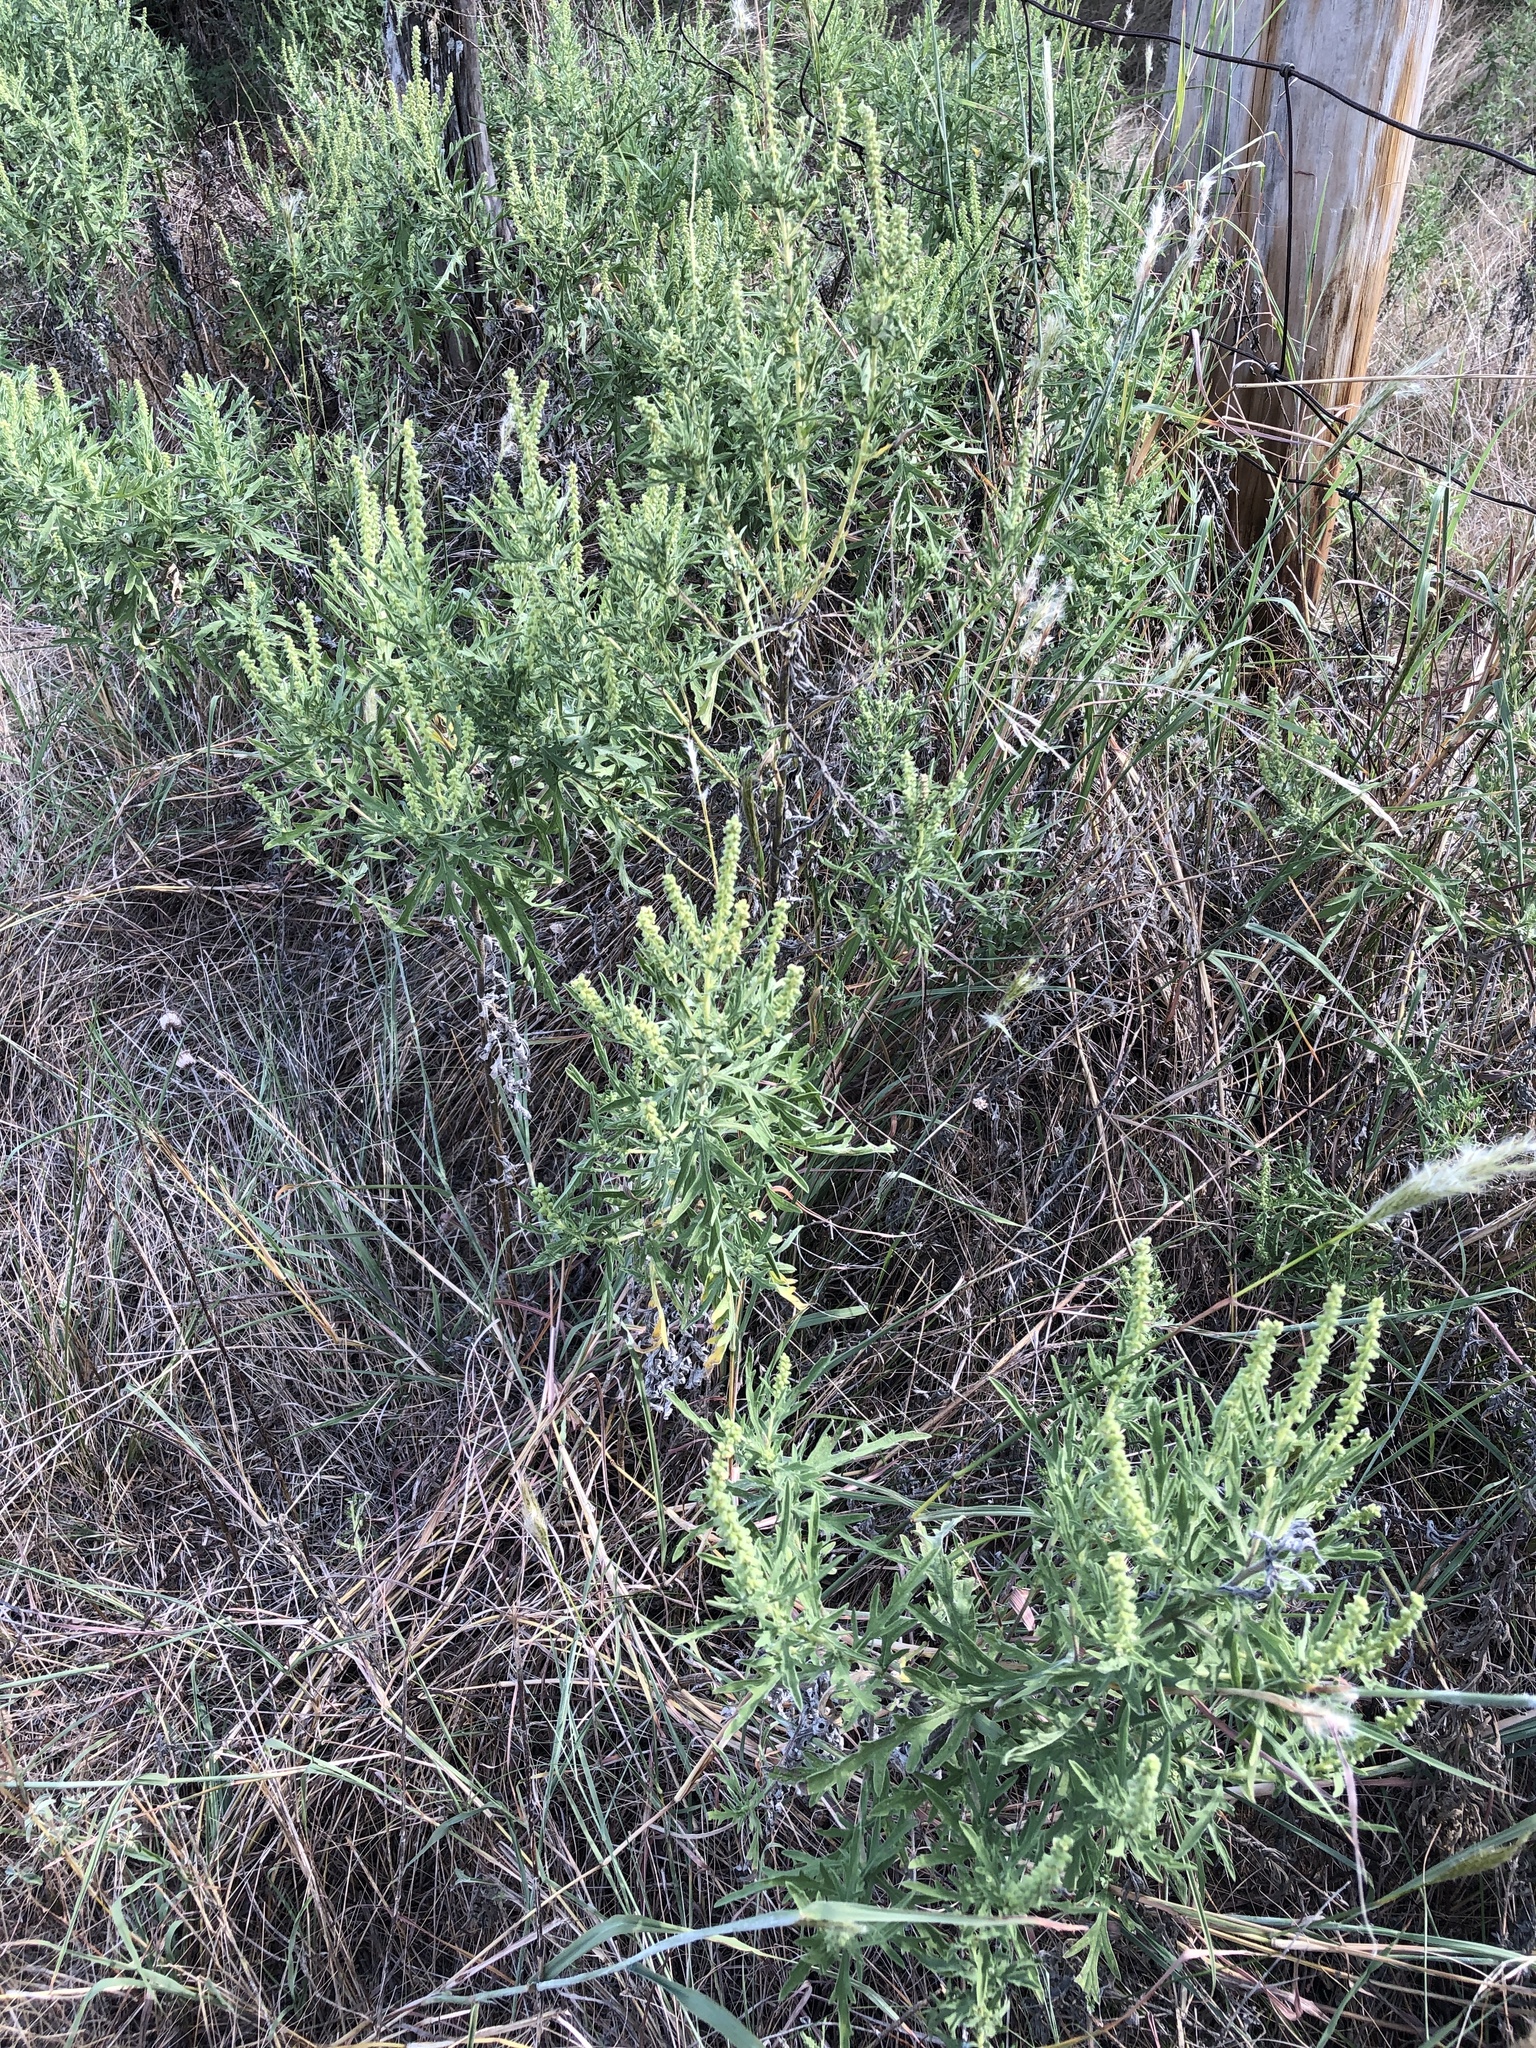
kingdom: Plantae
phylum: Tracheophyta
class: Magnoliopsida
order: Asterales
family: Asteraceae
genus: Ambrosia
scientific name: Ambrosia psilostachya
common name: Perennial ragweed
